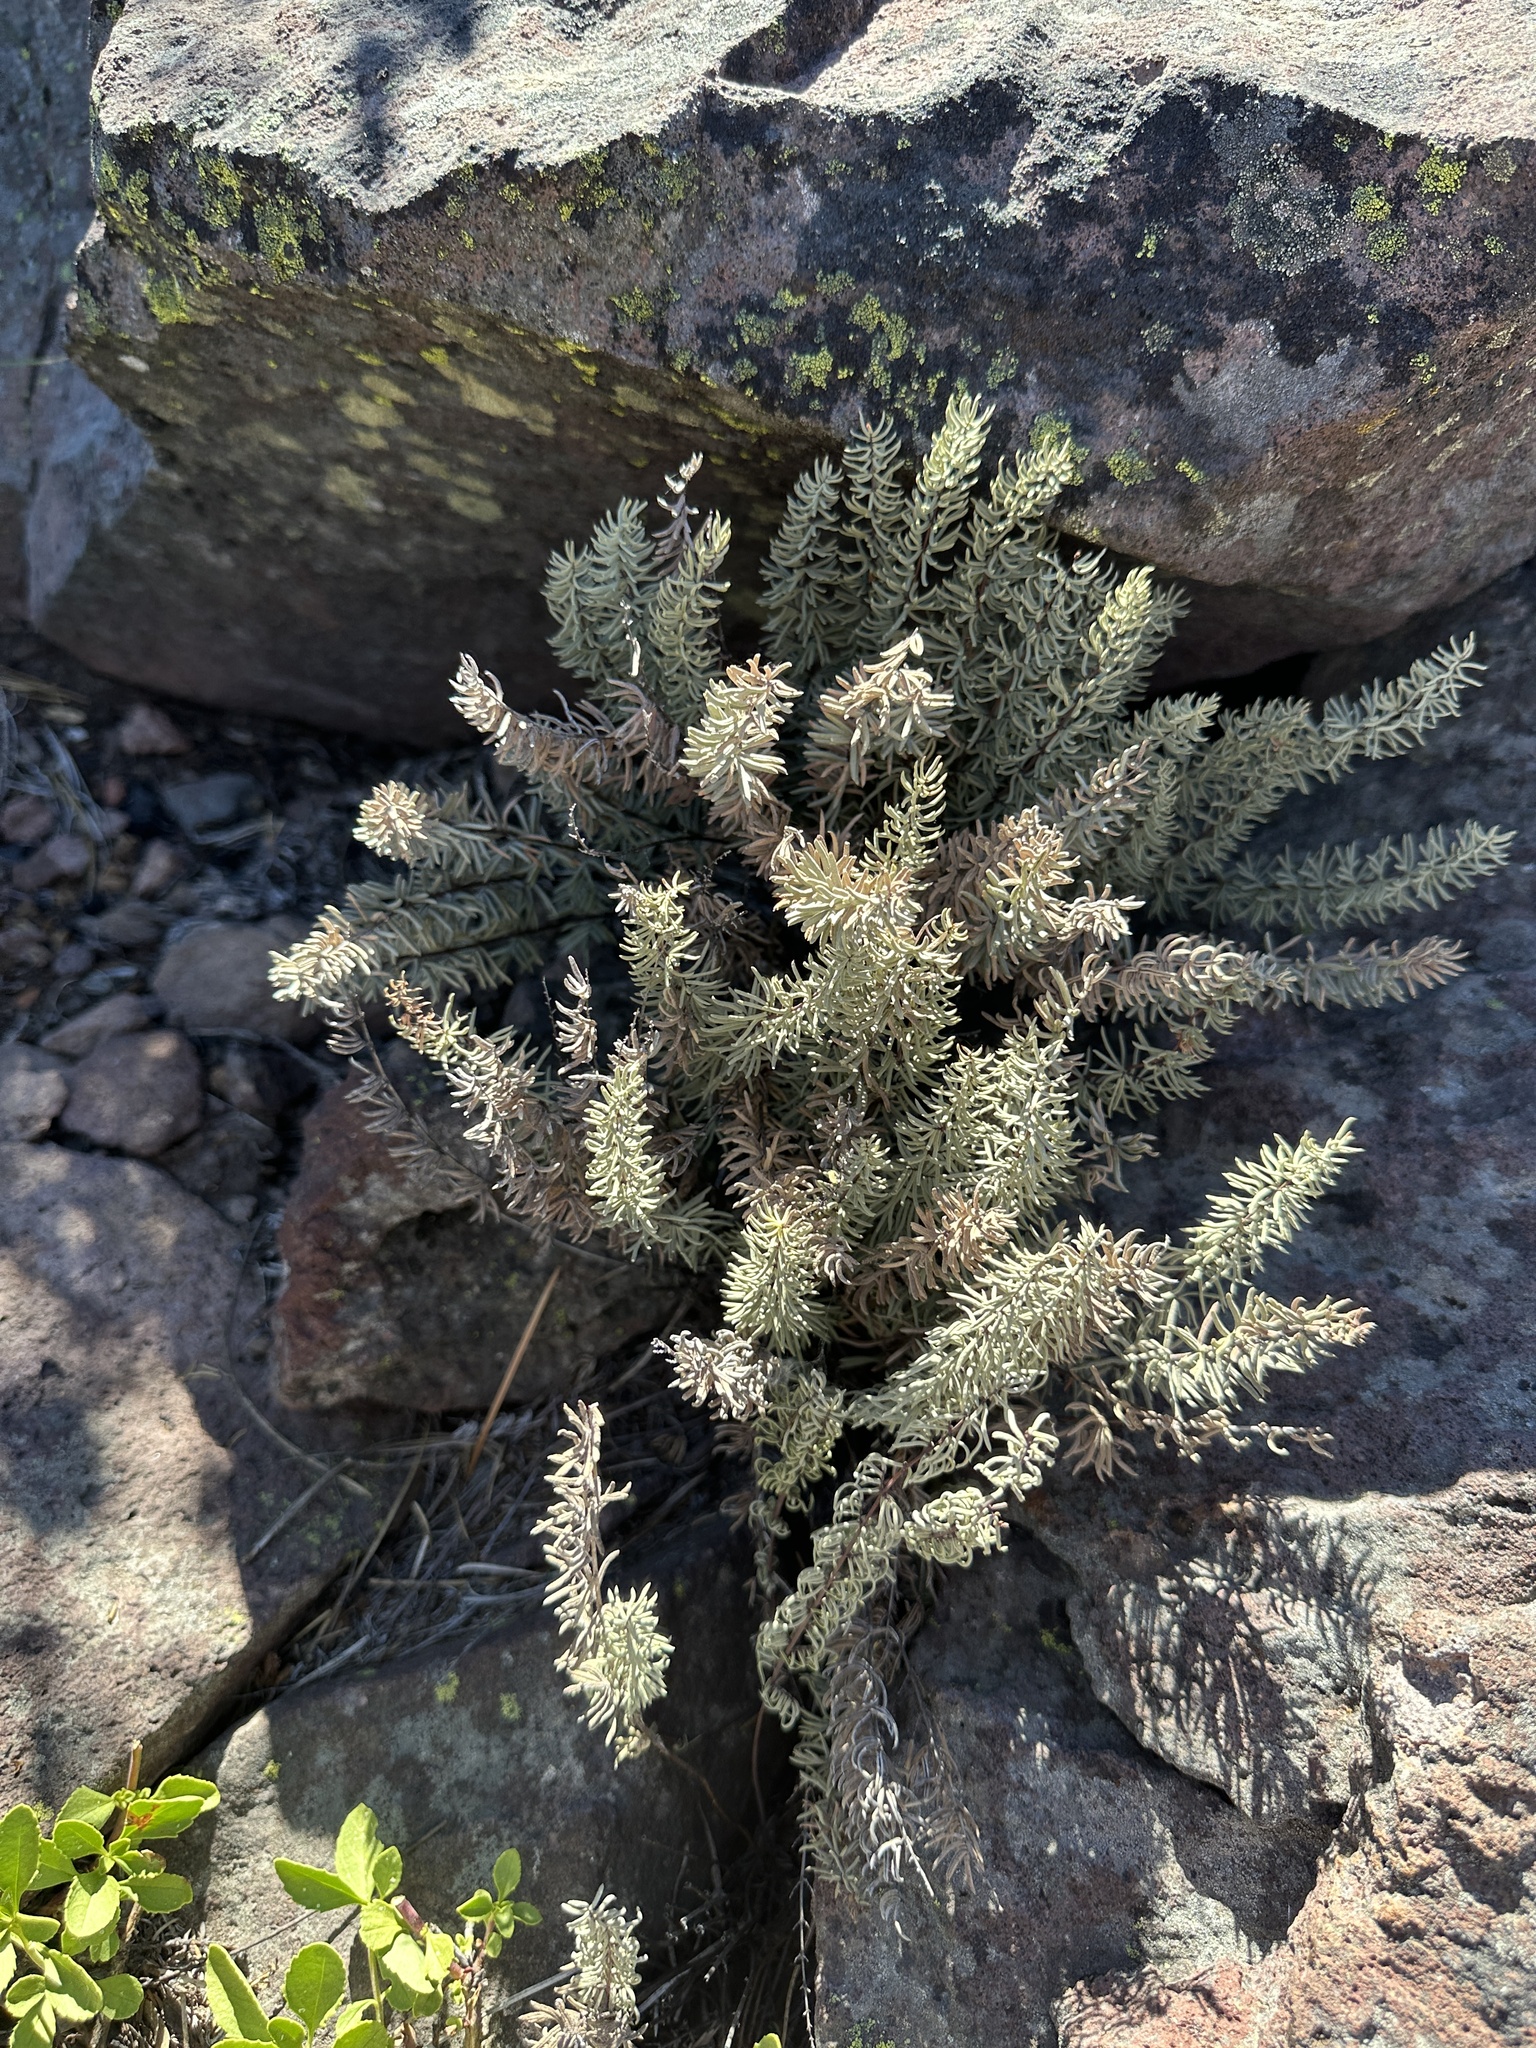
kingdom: Plantae
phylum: Tracheophyta
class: Polypodiopsida
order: Polypodiales
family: Pteridaceae
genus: Pellaea
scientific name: Pellaea brachyptera
